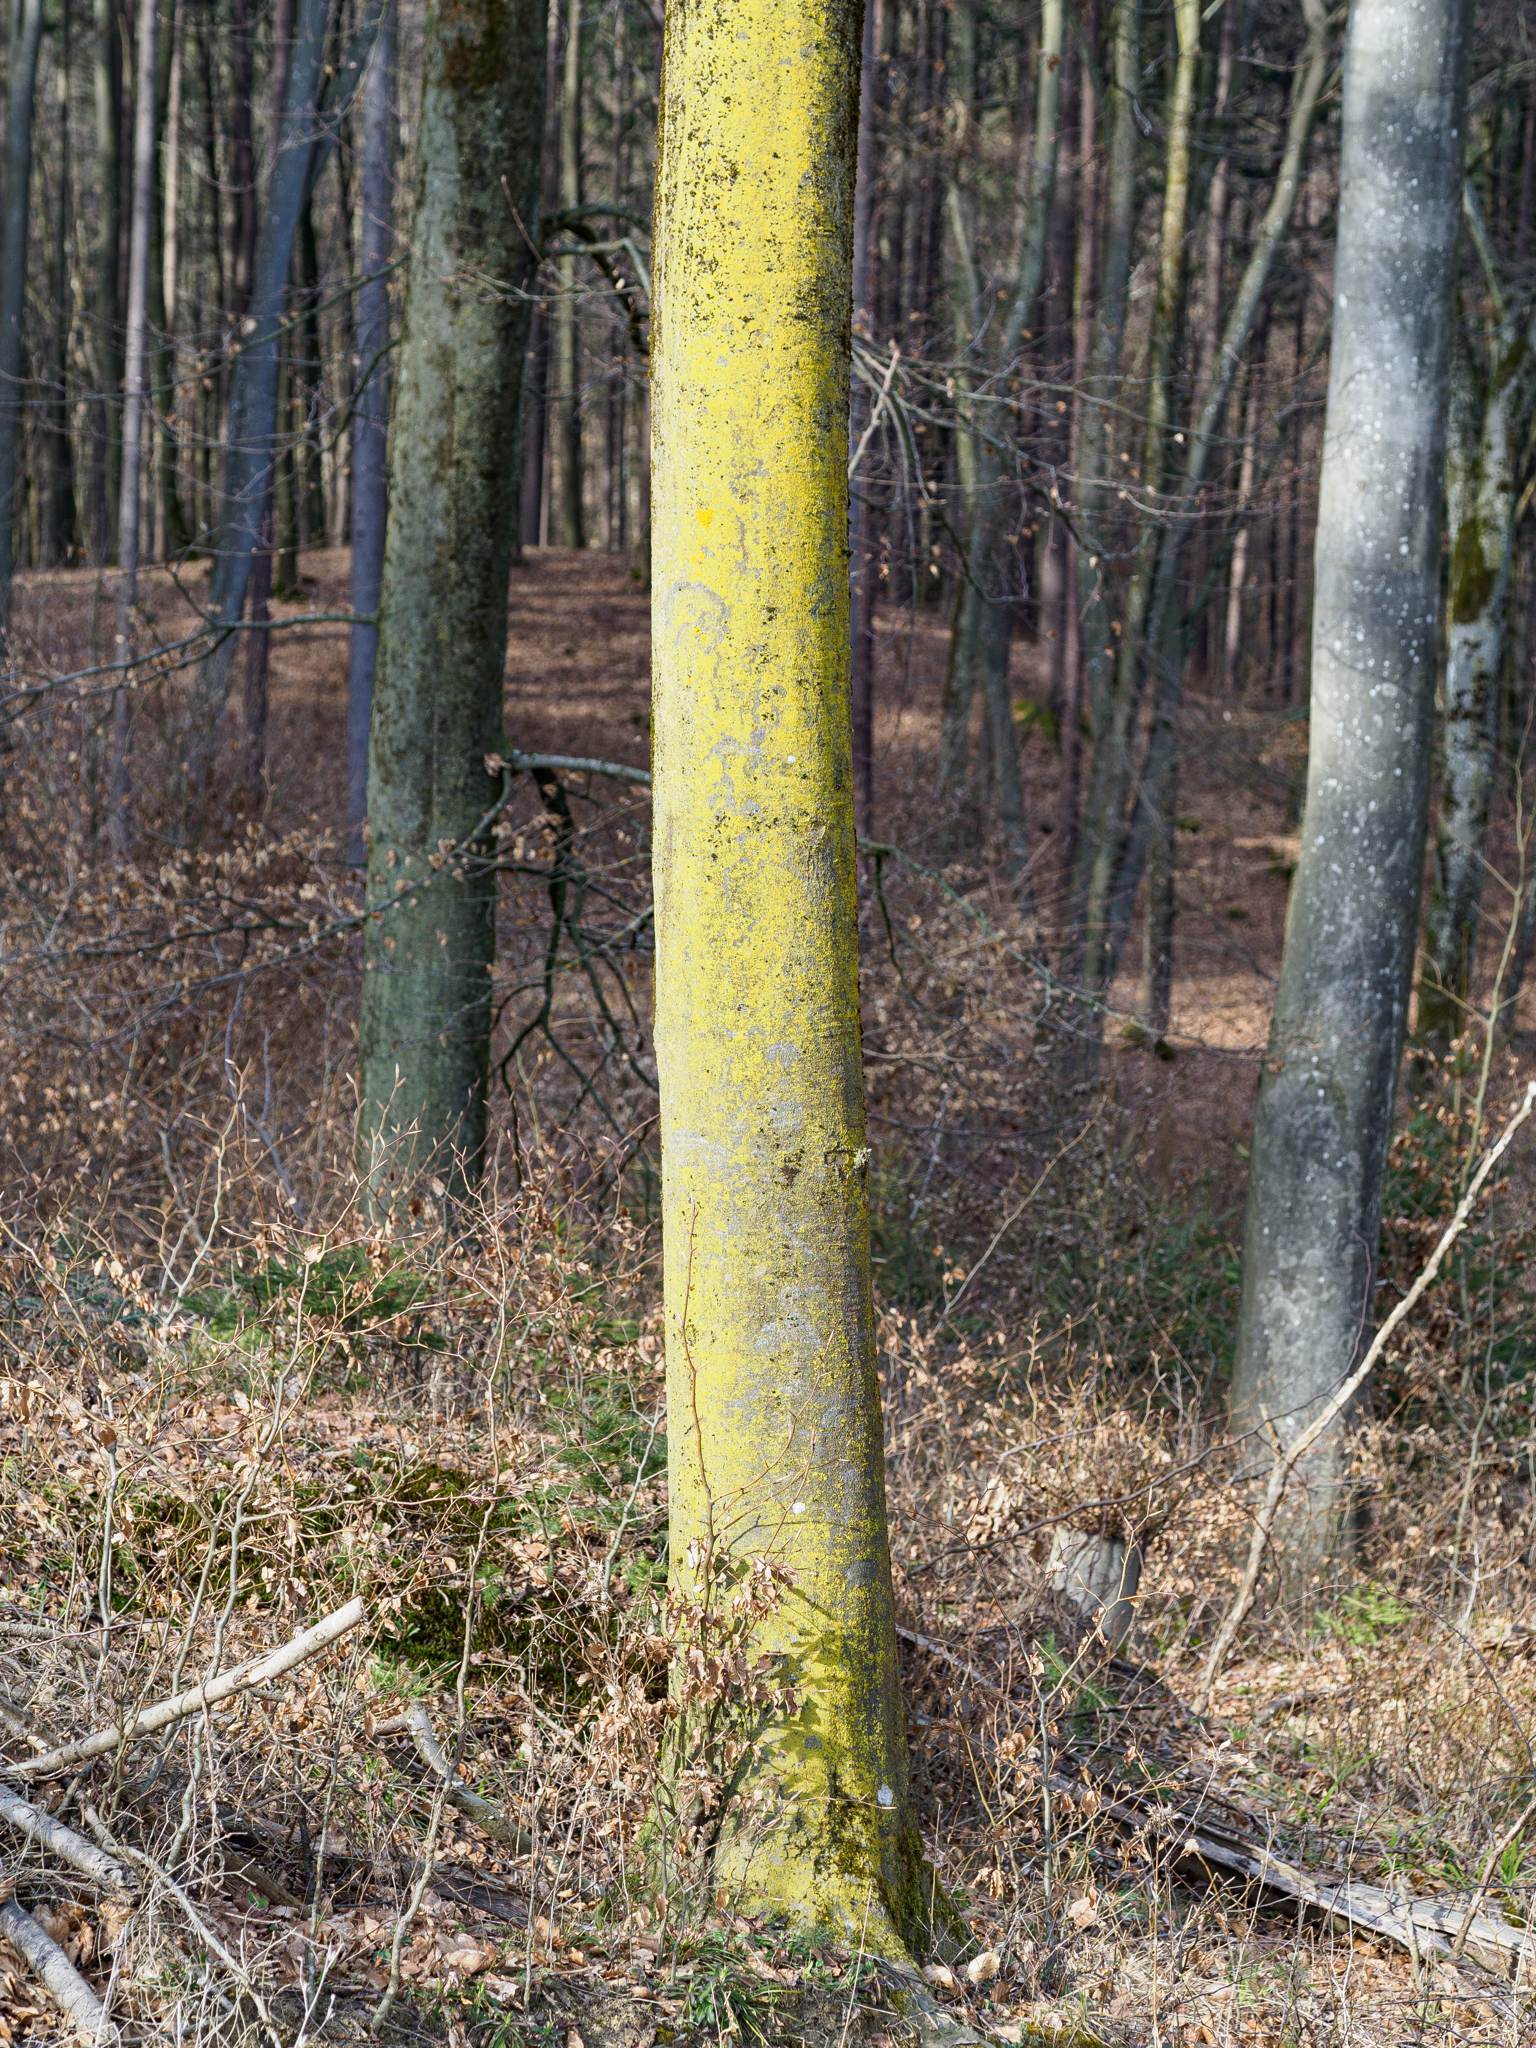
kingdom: Fungi
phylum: Ascomycota
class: Candelariomycetes
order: Candelariales
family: Candelariaceae
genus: Candelaria
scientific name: Candelaria concolor
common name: Candleflame lichen
